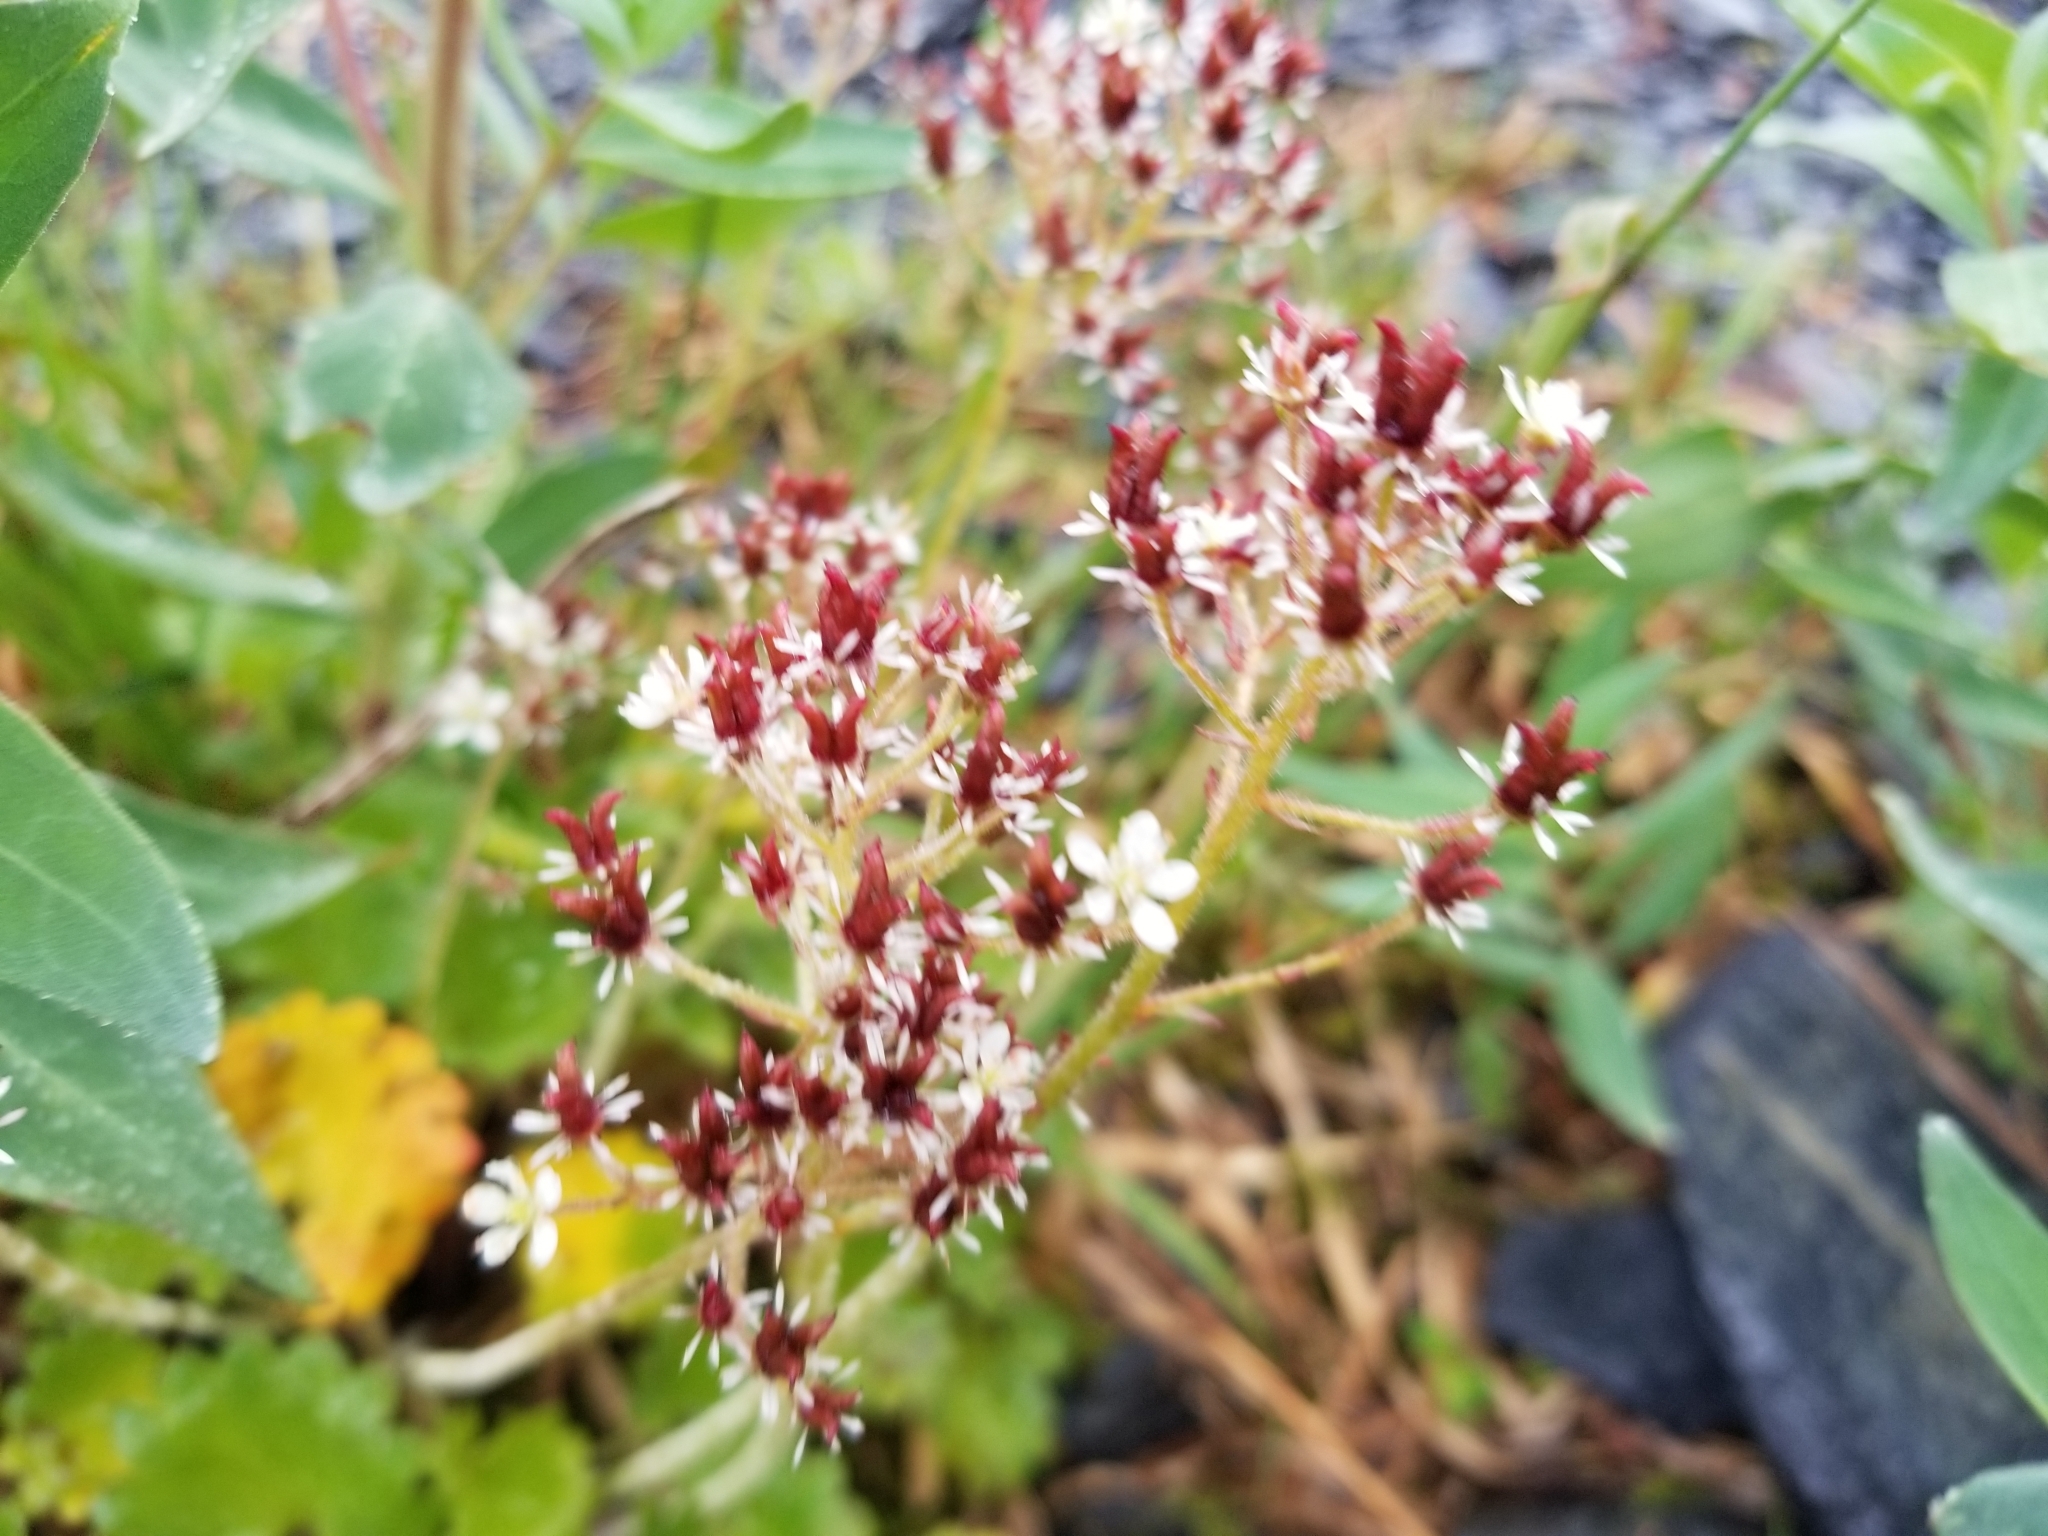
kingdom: Plantae
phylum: Tracheophyta
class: Magnoliopsida
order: Saxifragales
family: Saxifragaceae
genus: Micranthes
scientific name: Micranthes nelsoniana
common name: Nelson's saxifrage
